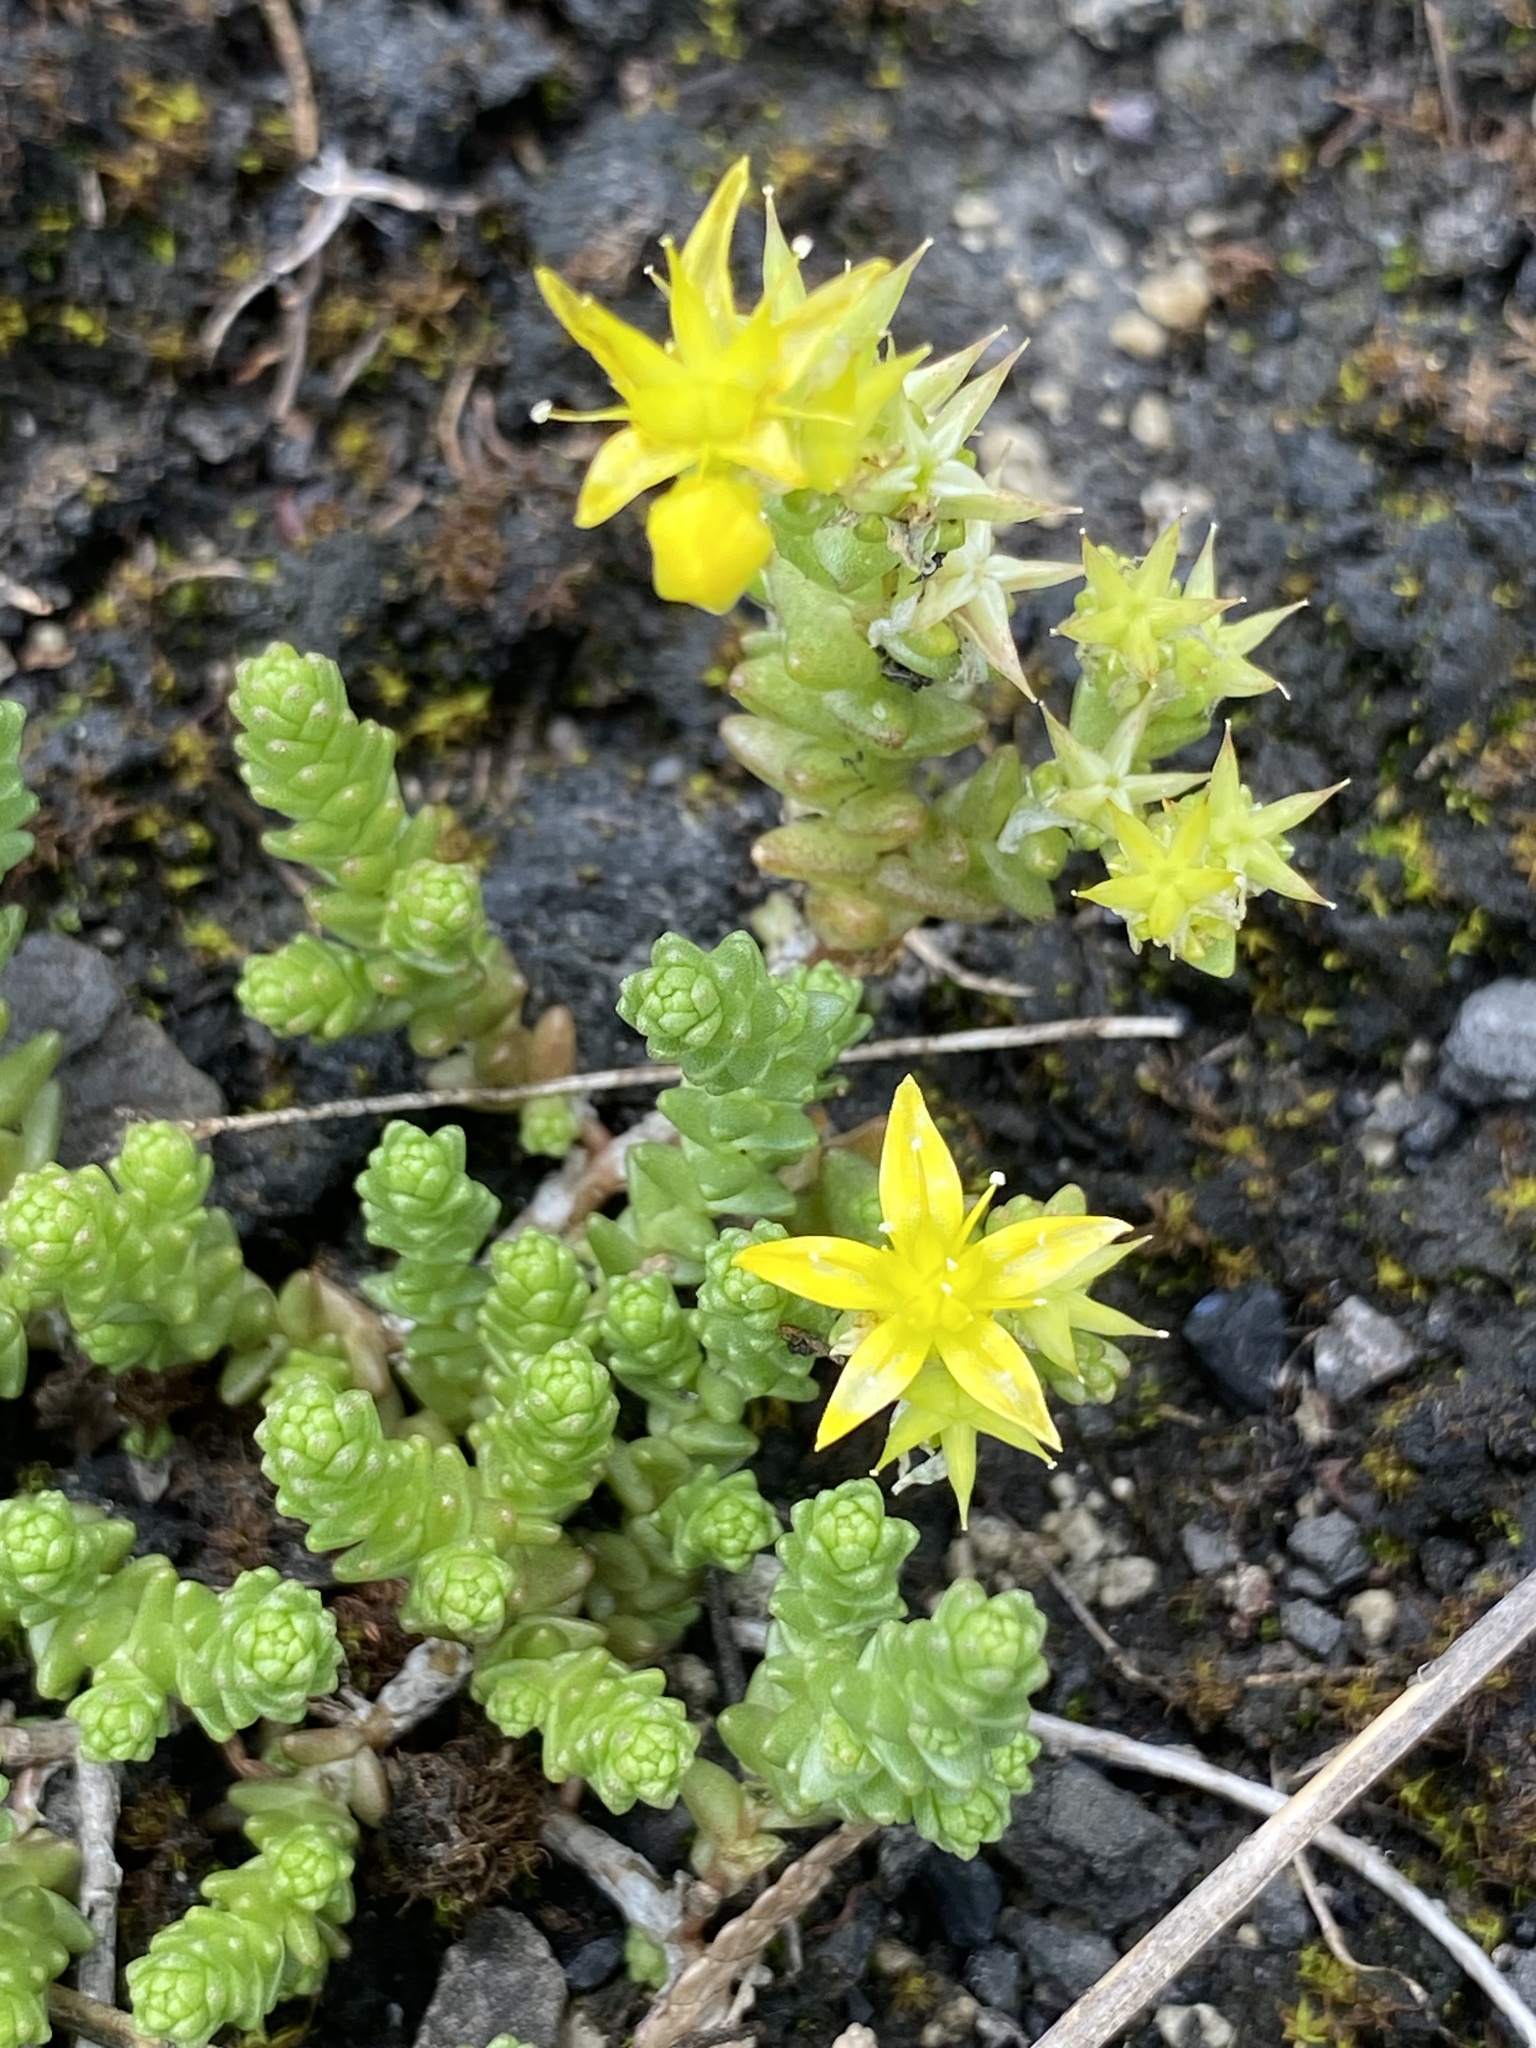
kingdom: Plantae
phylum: Tracheophyta
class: Magnoliopsida
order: Saxifragales
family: Crassulaceae
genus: Sedum
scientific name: Sedum acre
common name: Biting stonecrop
